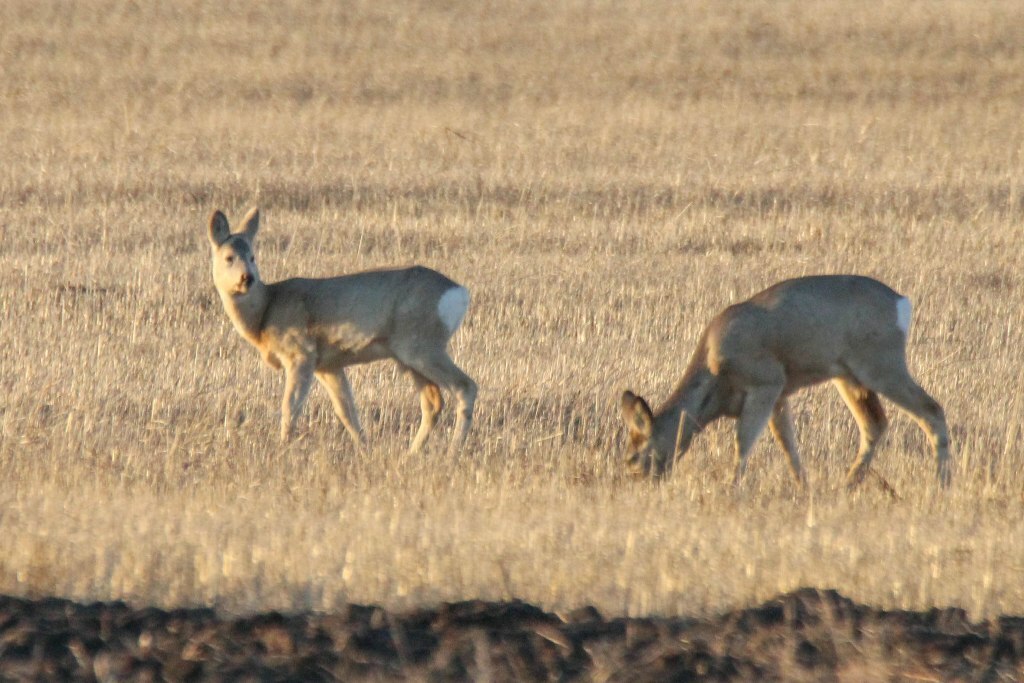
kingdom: Animalia
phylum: Chordata
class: Mammalia
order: Artiodactyla
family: Cervidae
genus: Capreolus
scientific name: Capreolus pygargus
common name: Siberian roe
